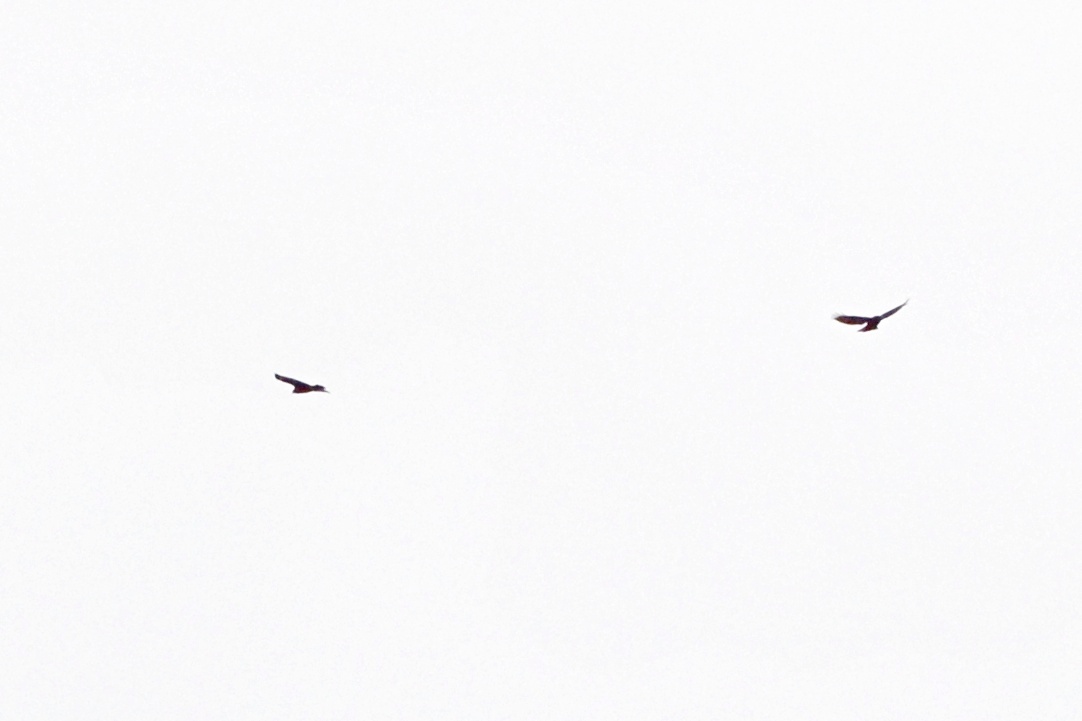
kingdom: Animalia
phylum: Chordata
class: Aves
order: Accipitriformes
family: Accipitridae
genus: Buteo
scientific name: Buteo buteo
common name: Common buzzard
